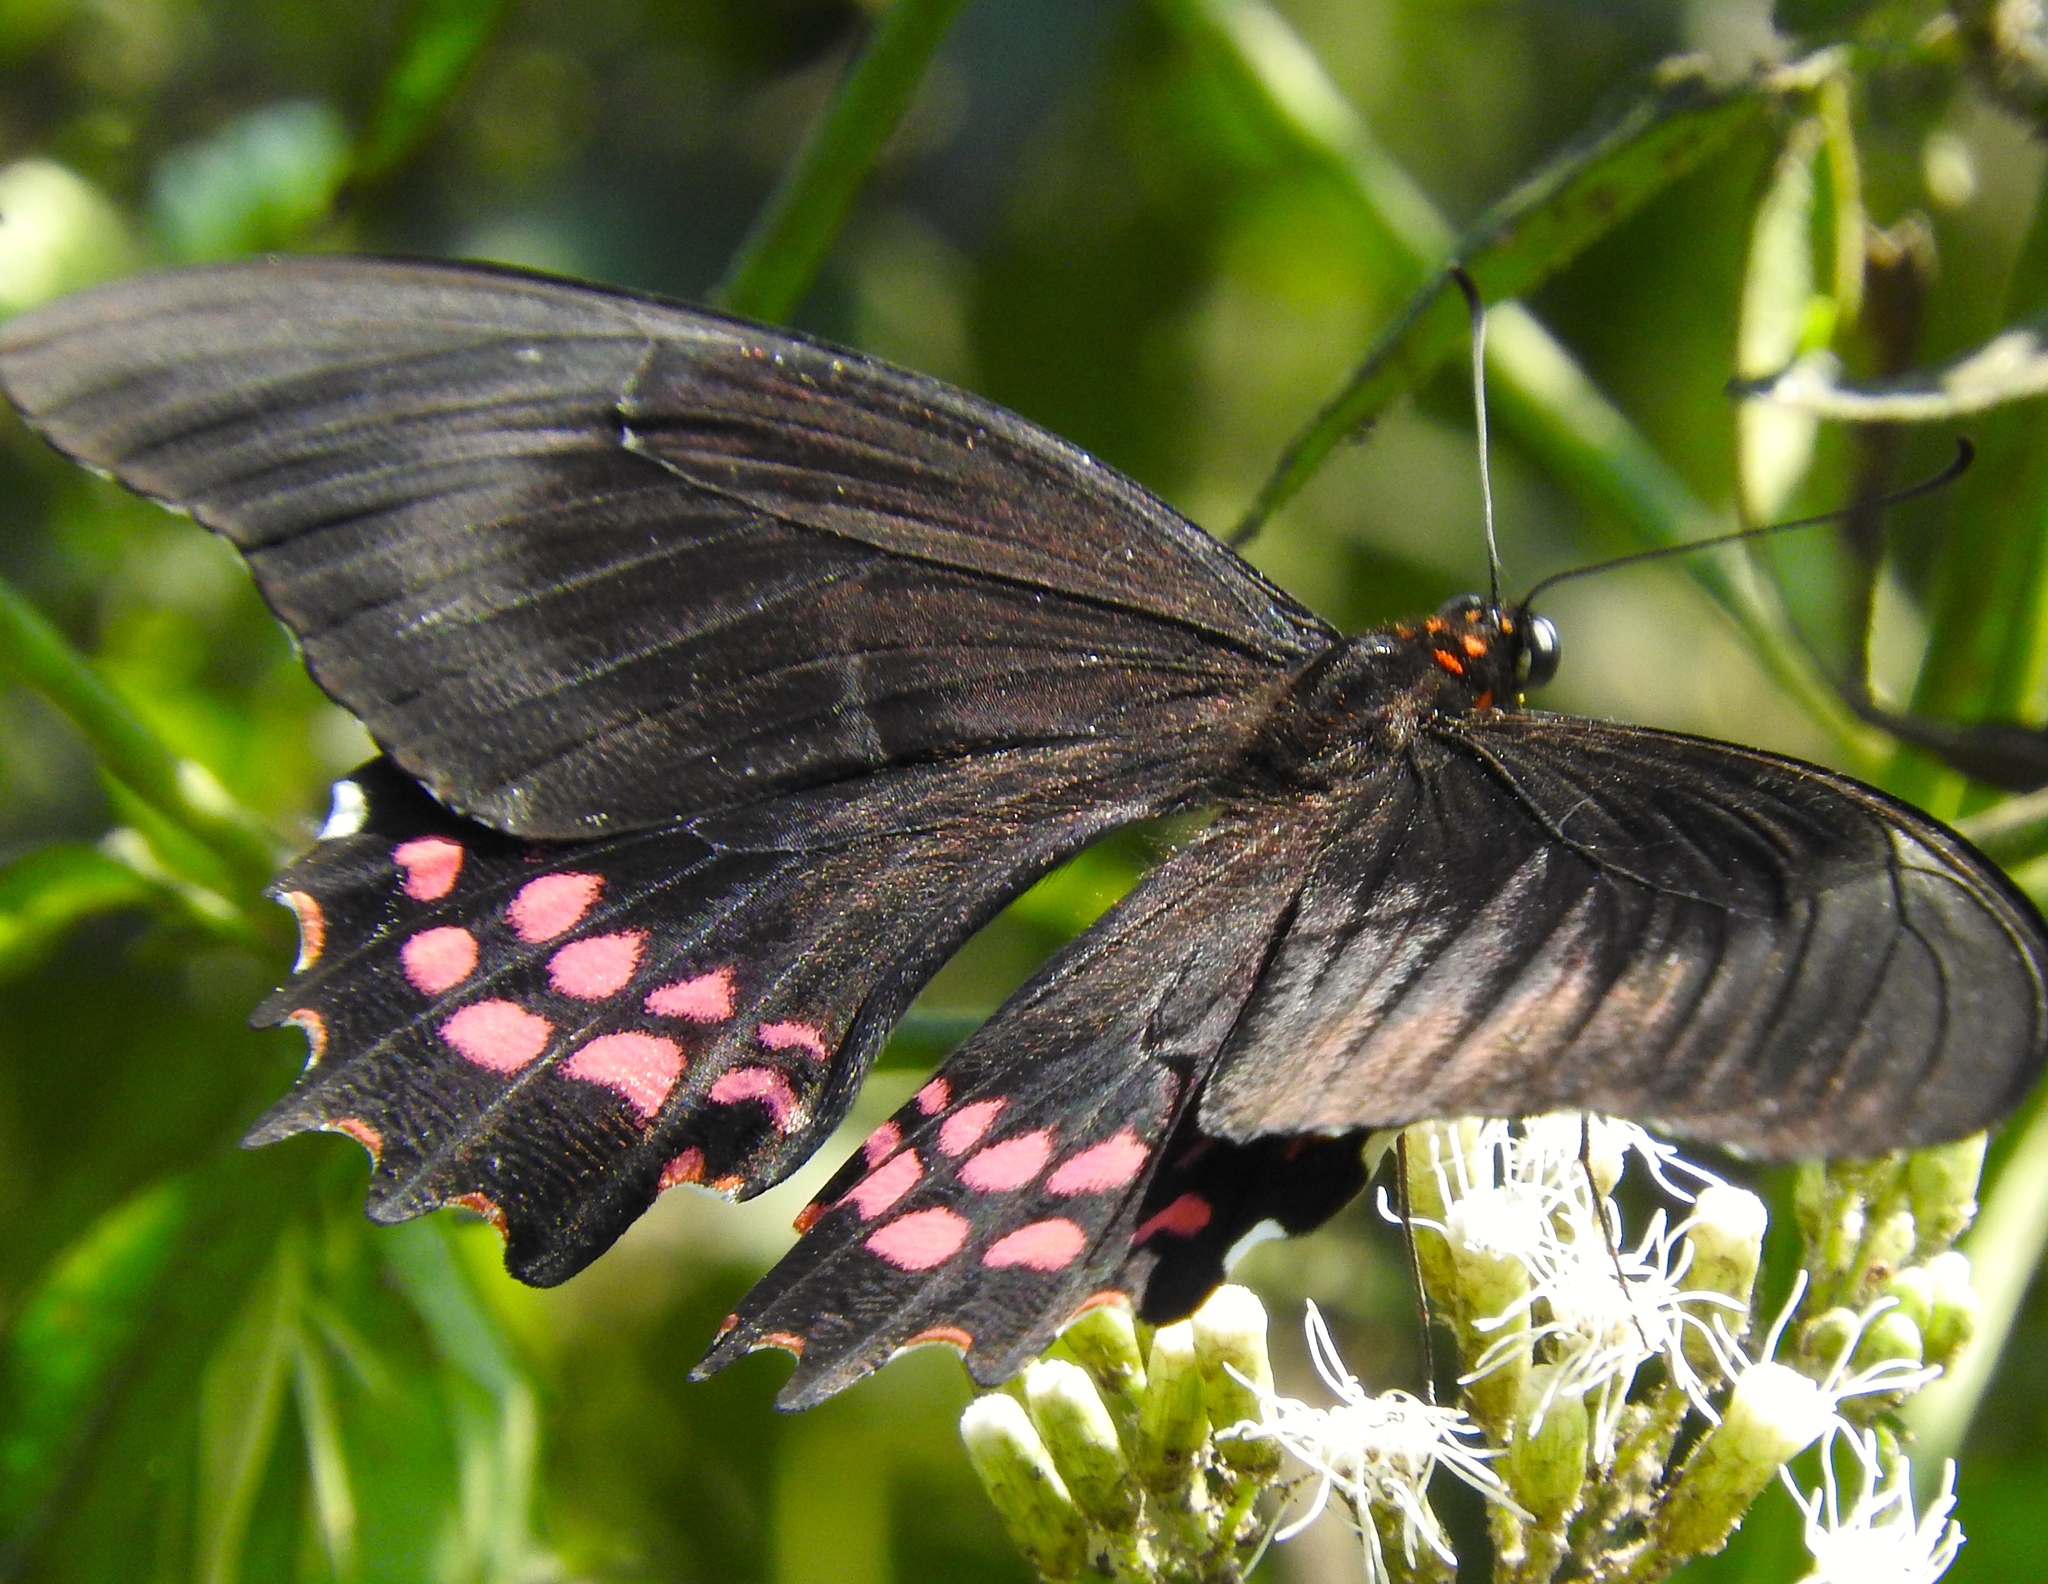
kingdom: Animalia
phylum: Arthropoda
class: Insecta
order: Lepidoptera
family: Papilionidae
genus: Heraclides
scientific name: Heraclides rogeri
